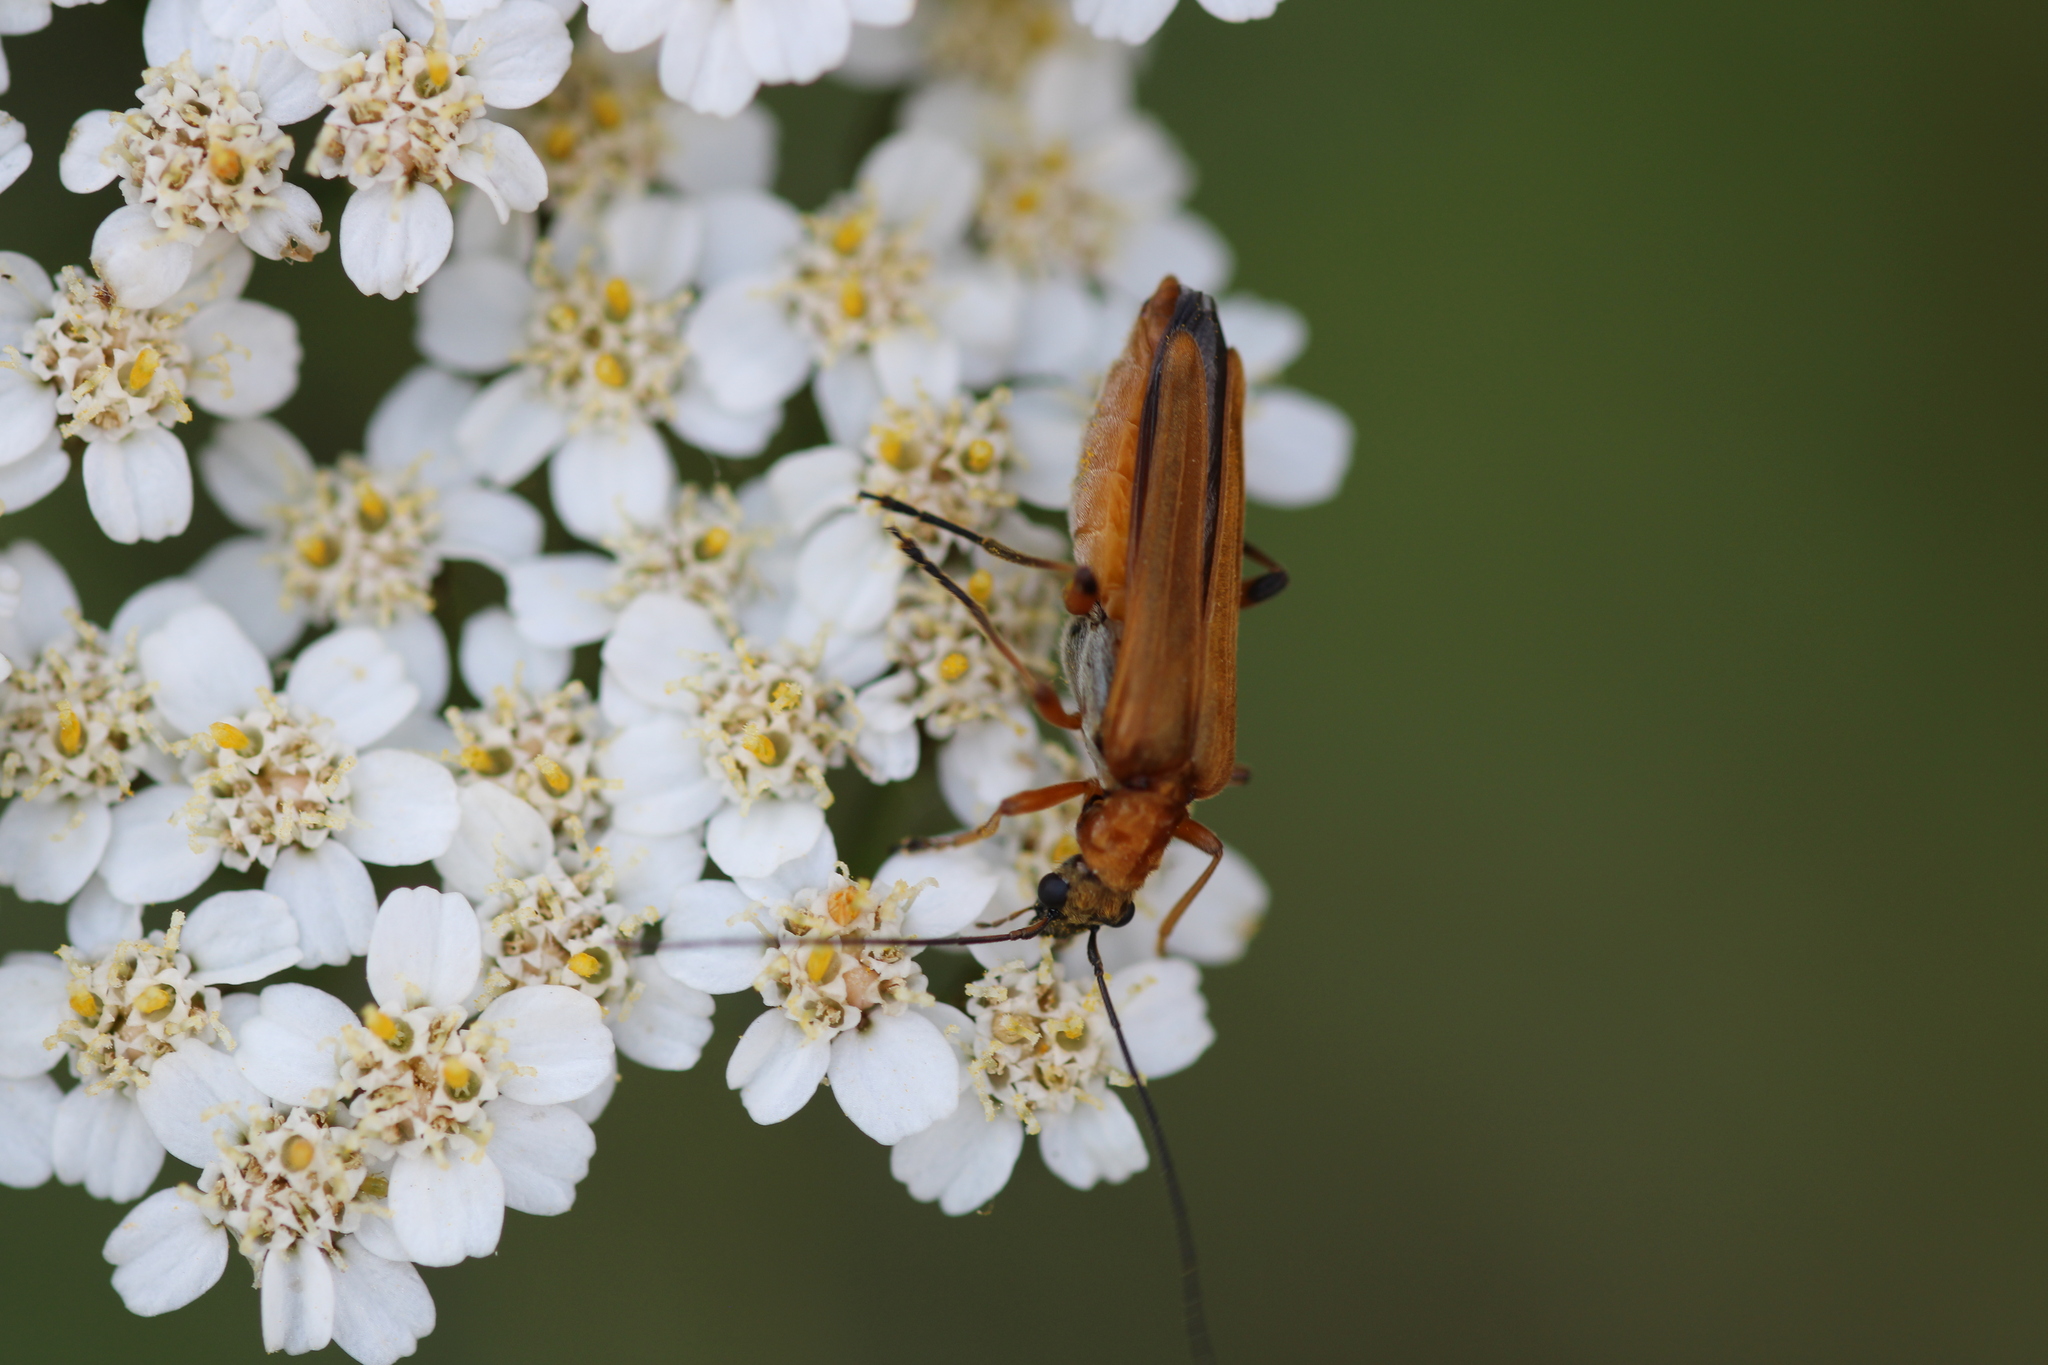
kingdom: Animalia
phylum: Arthropoda
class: Insecta
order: Coleoptera
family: Oedemeridae
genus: Oedemera
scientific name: Oedemera podagrariae
